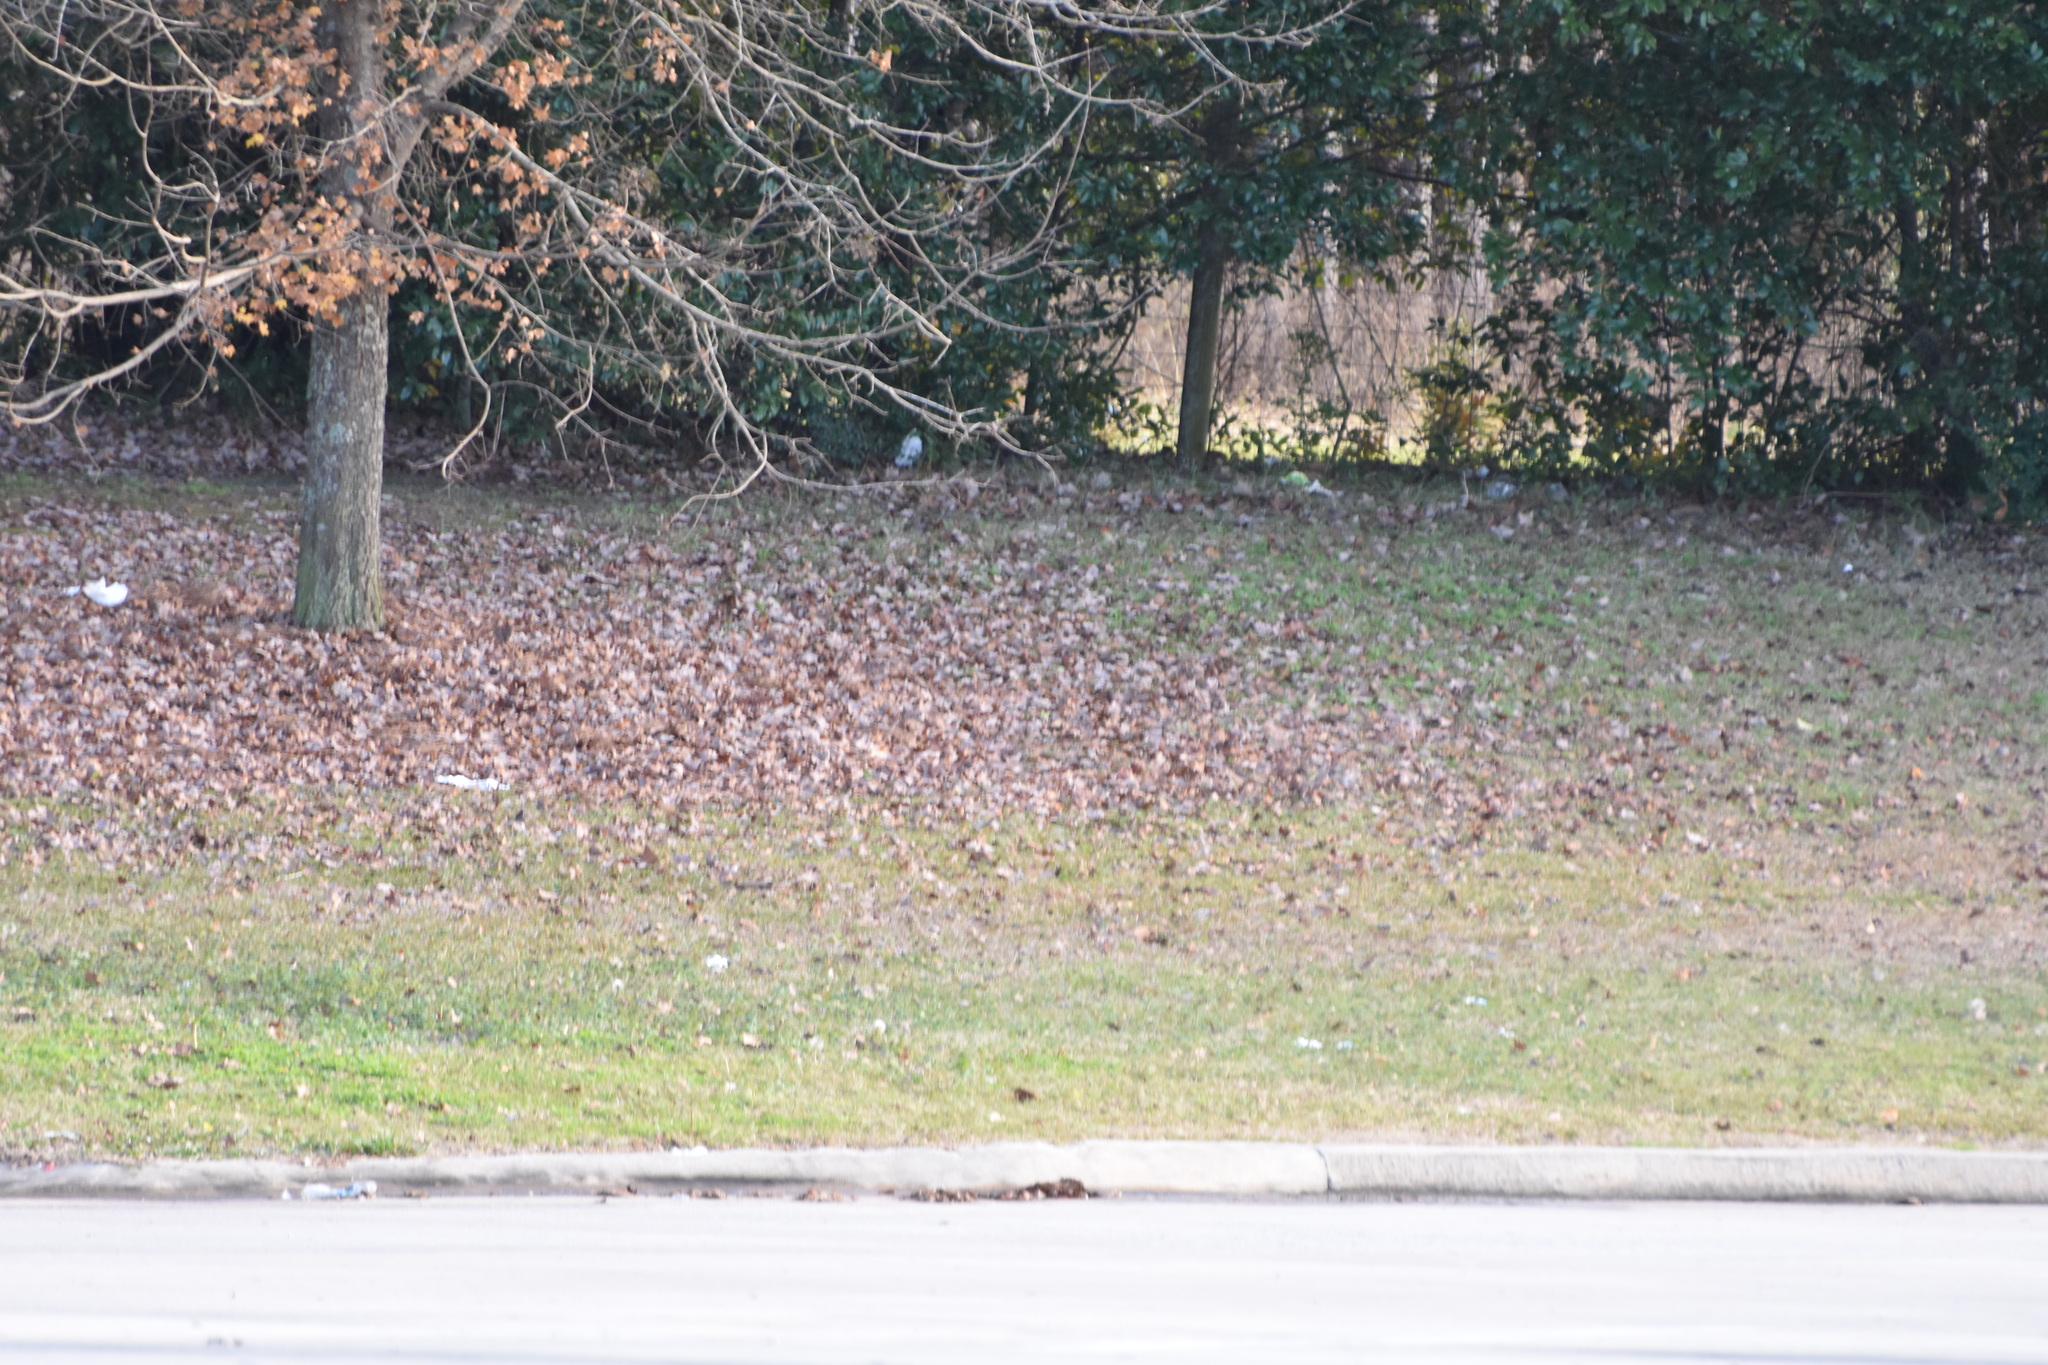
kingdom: Animalia
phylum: Chordata
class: Aves
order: Columbiformes
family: Columbidae
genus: Columba
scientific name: Columba livia
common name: Rock pigeon
